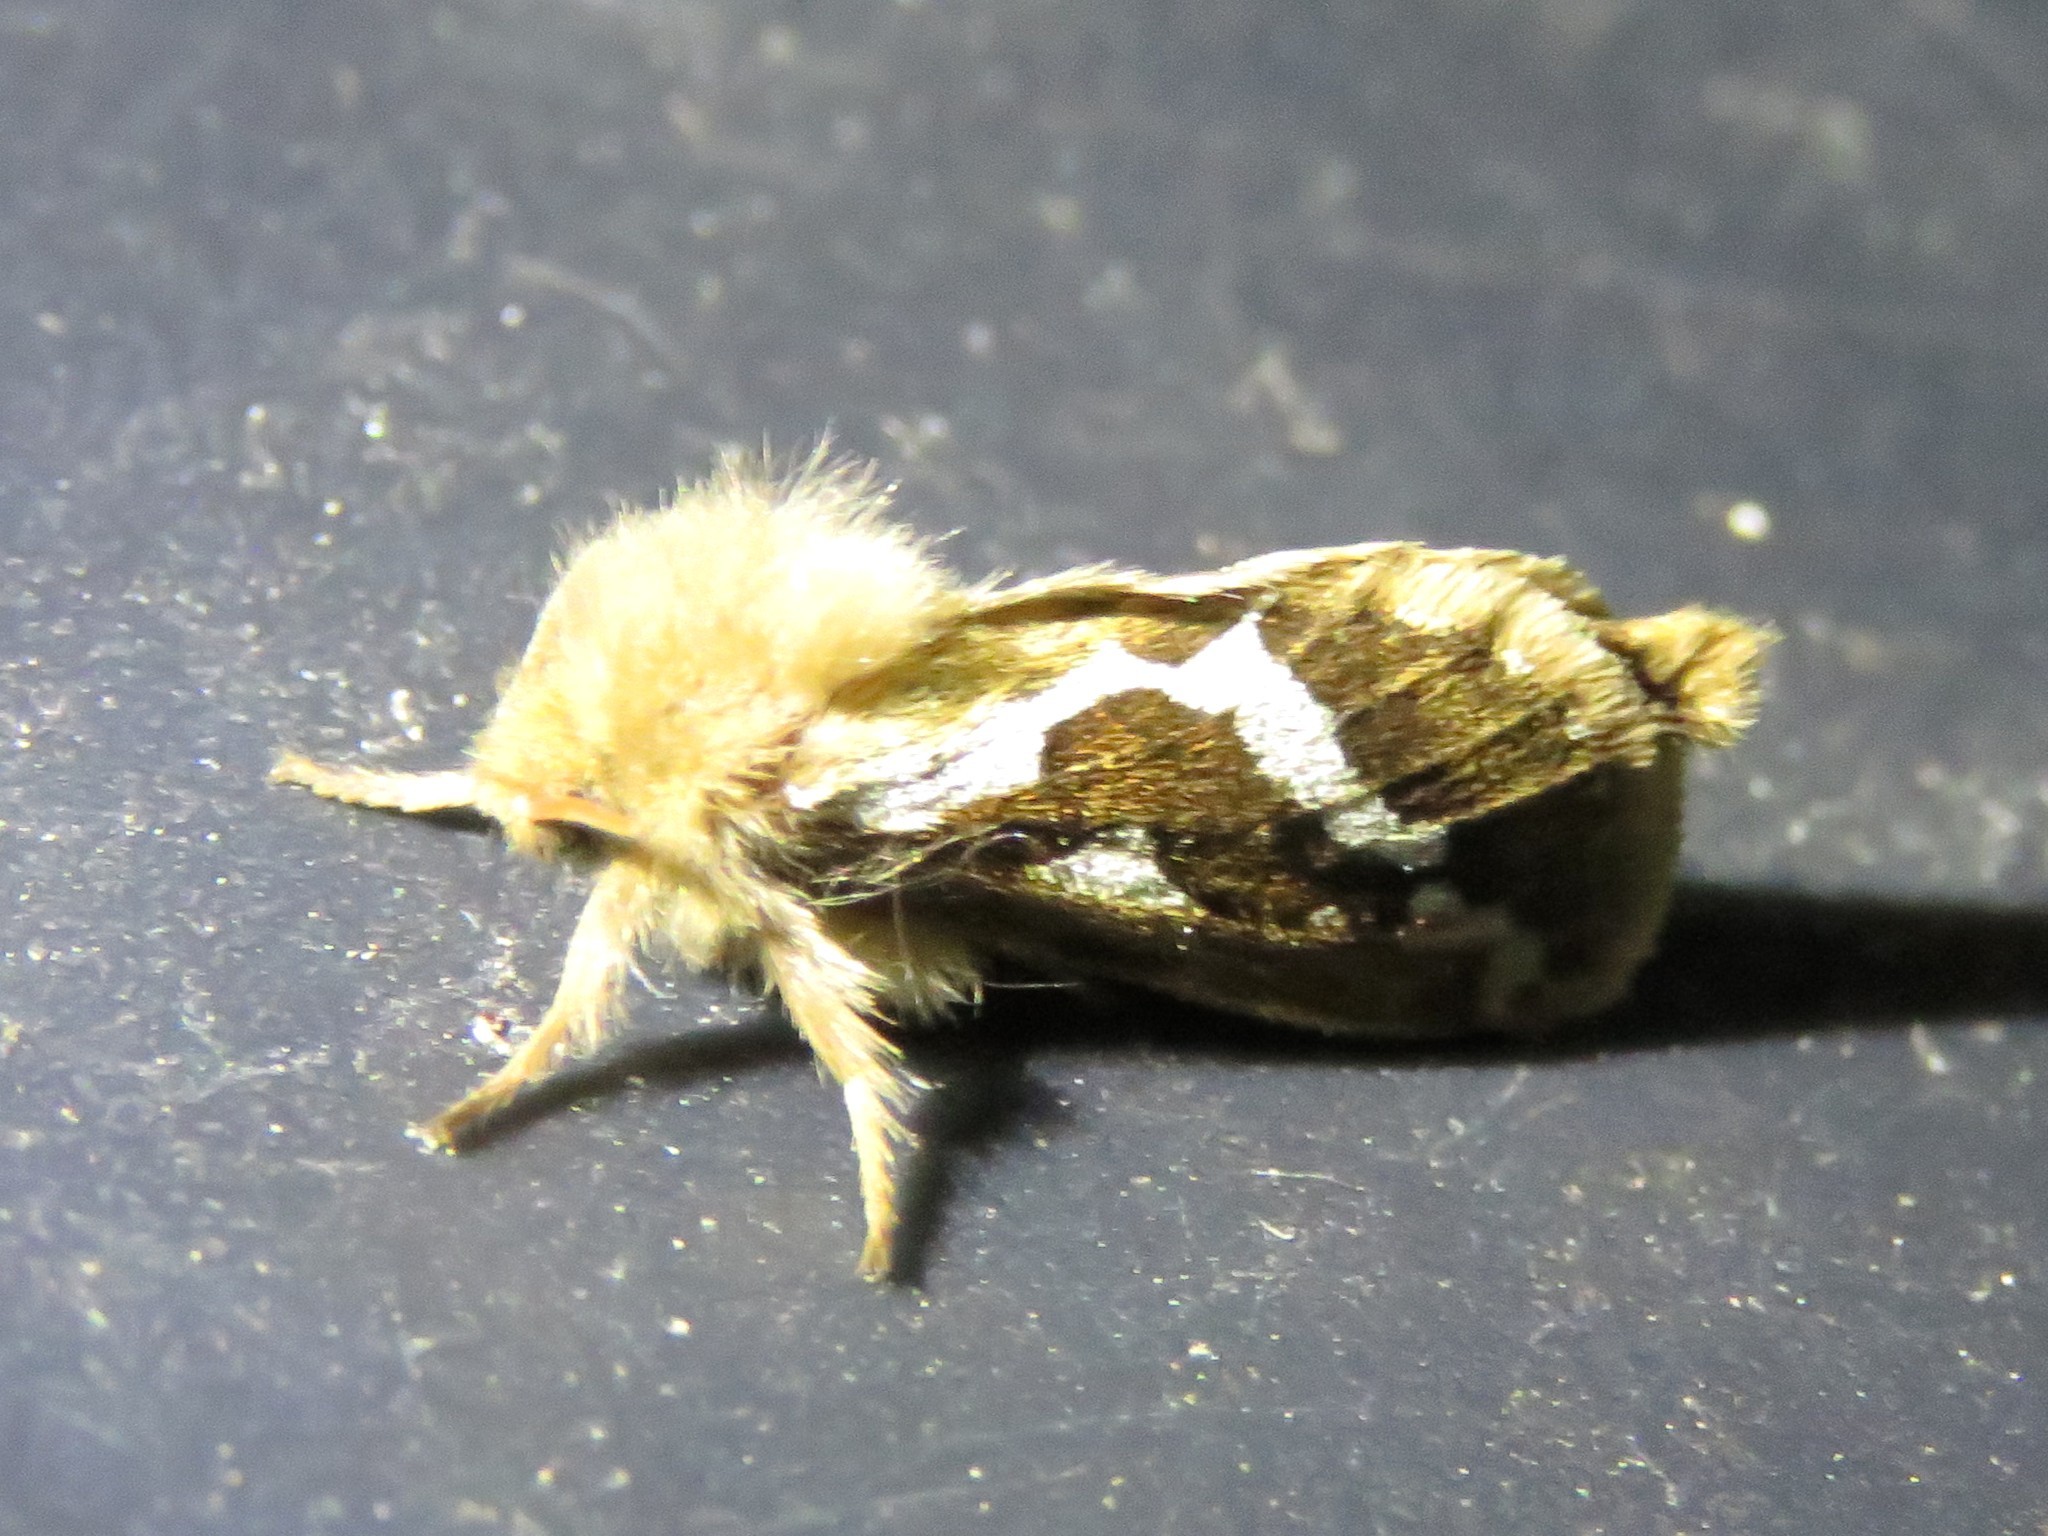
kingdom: Animalia
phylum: Arthropoda
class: Insecta
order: Lepidoptera
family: Hepialidae
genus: Korscheltellus
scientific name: Korscheltellus lupulina
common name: Common swift
